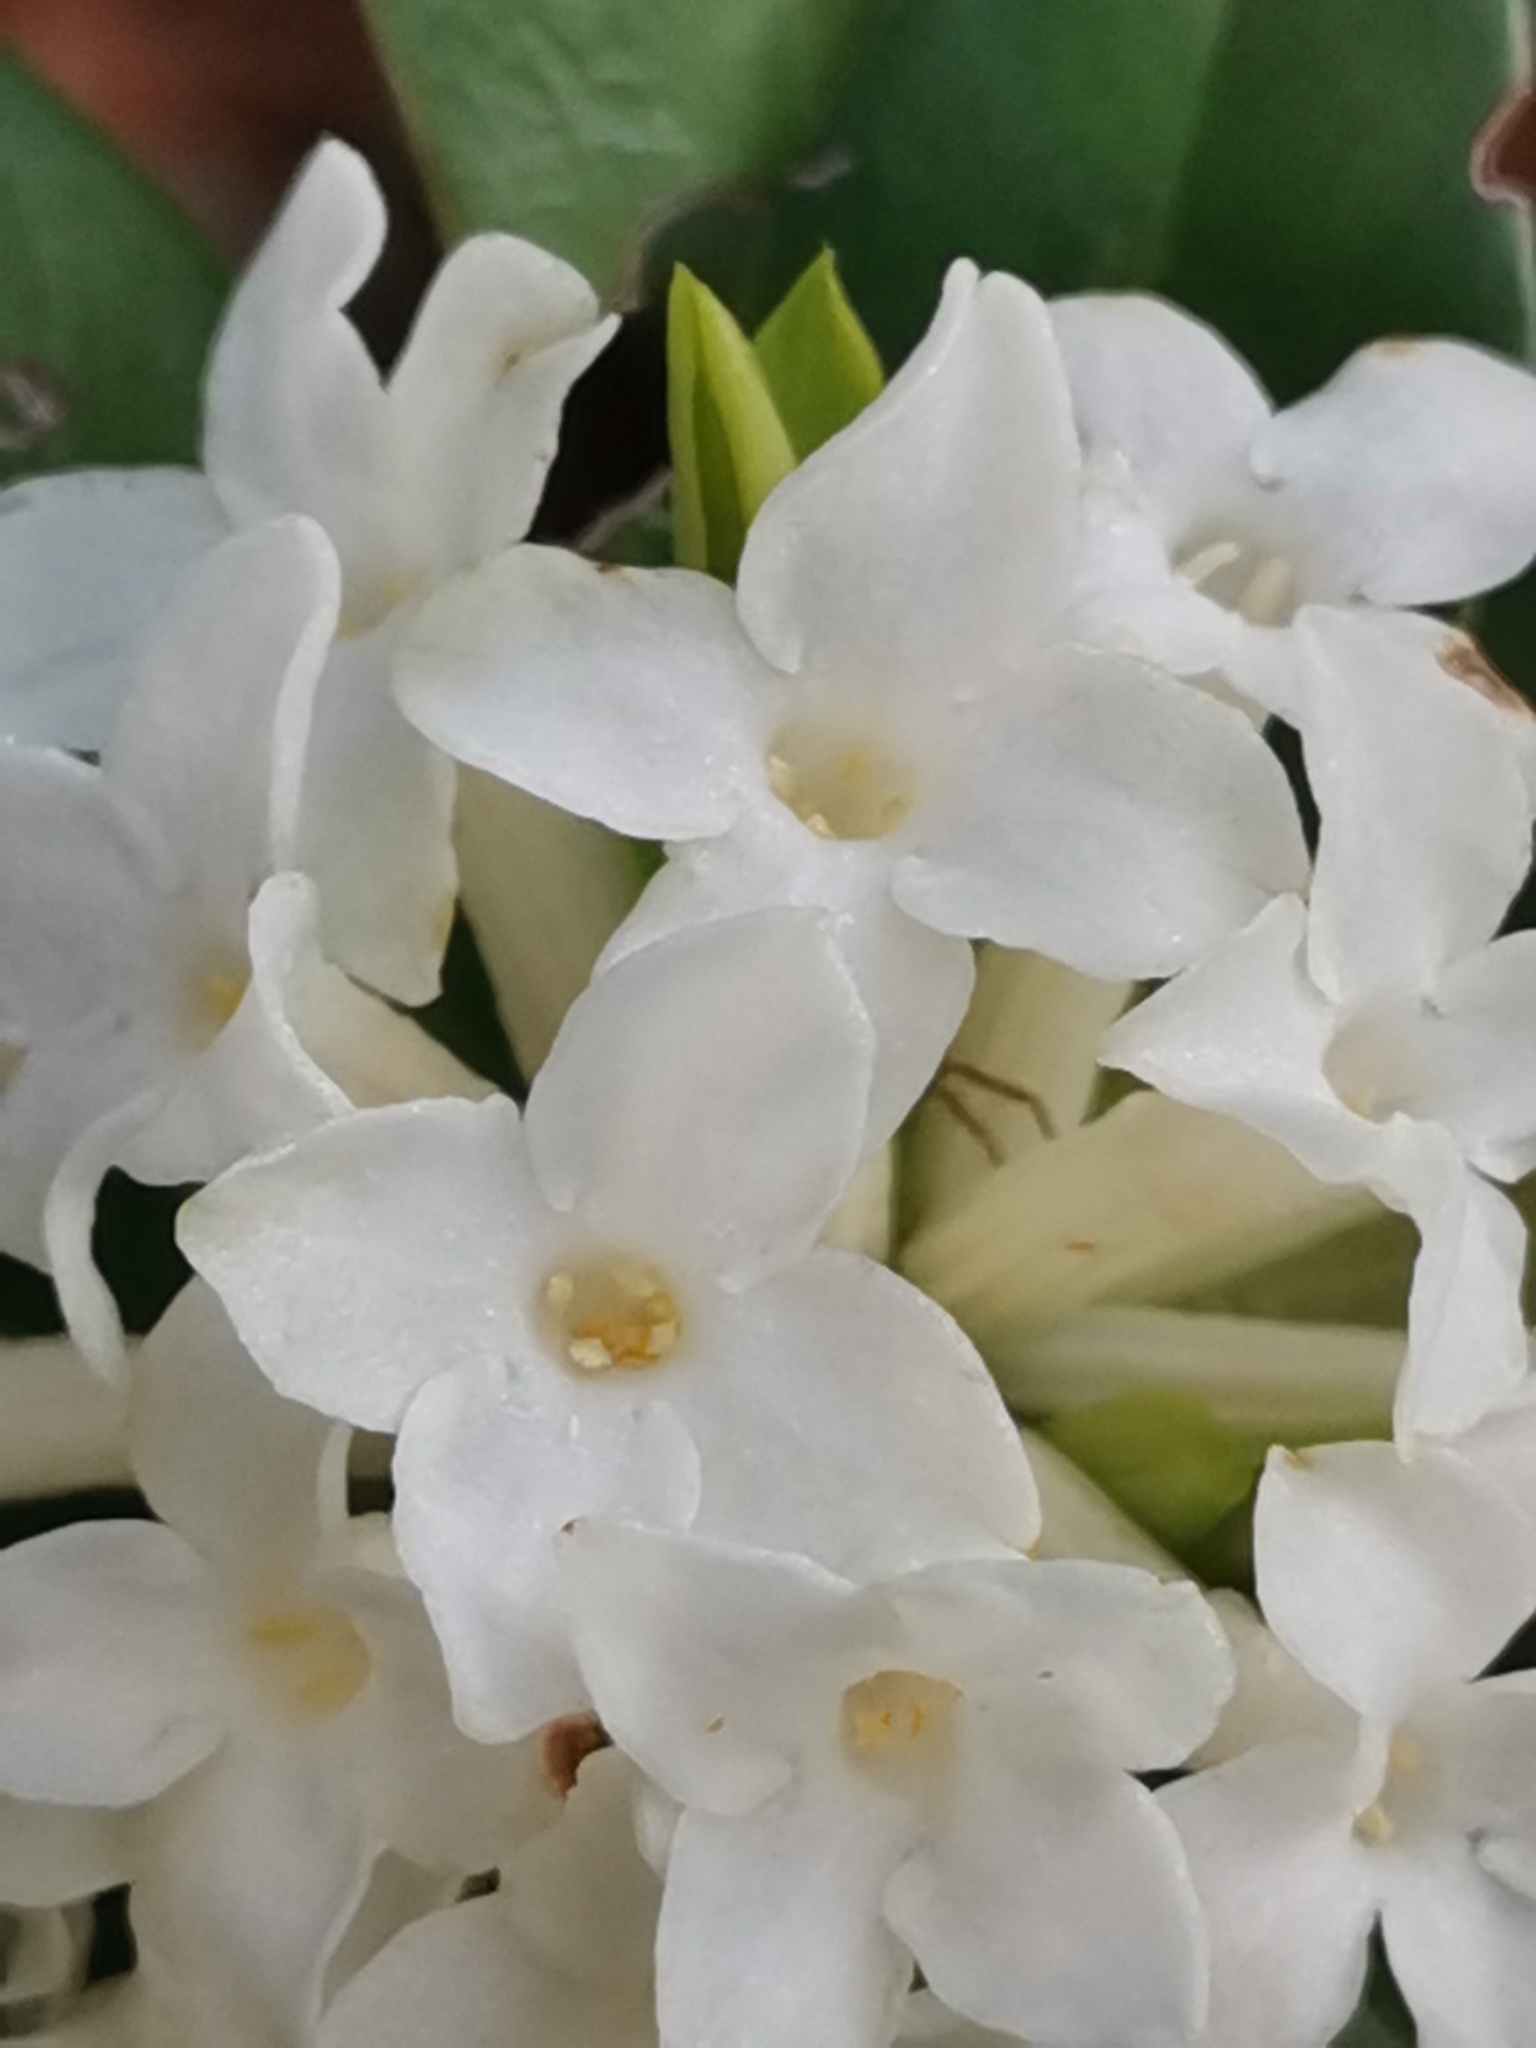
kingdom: Plantae
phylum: Tracheophyta
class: Magnoliopsida
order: Malvales
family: Thymelaeaceae
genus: Daphne
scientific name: Daphne blagayana
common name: Balkan daphne
